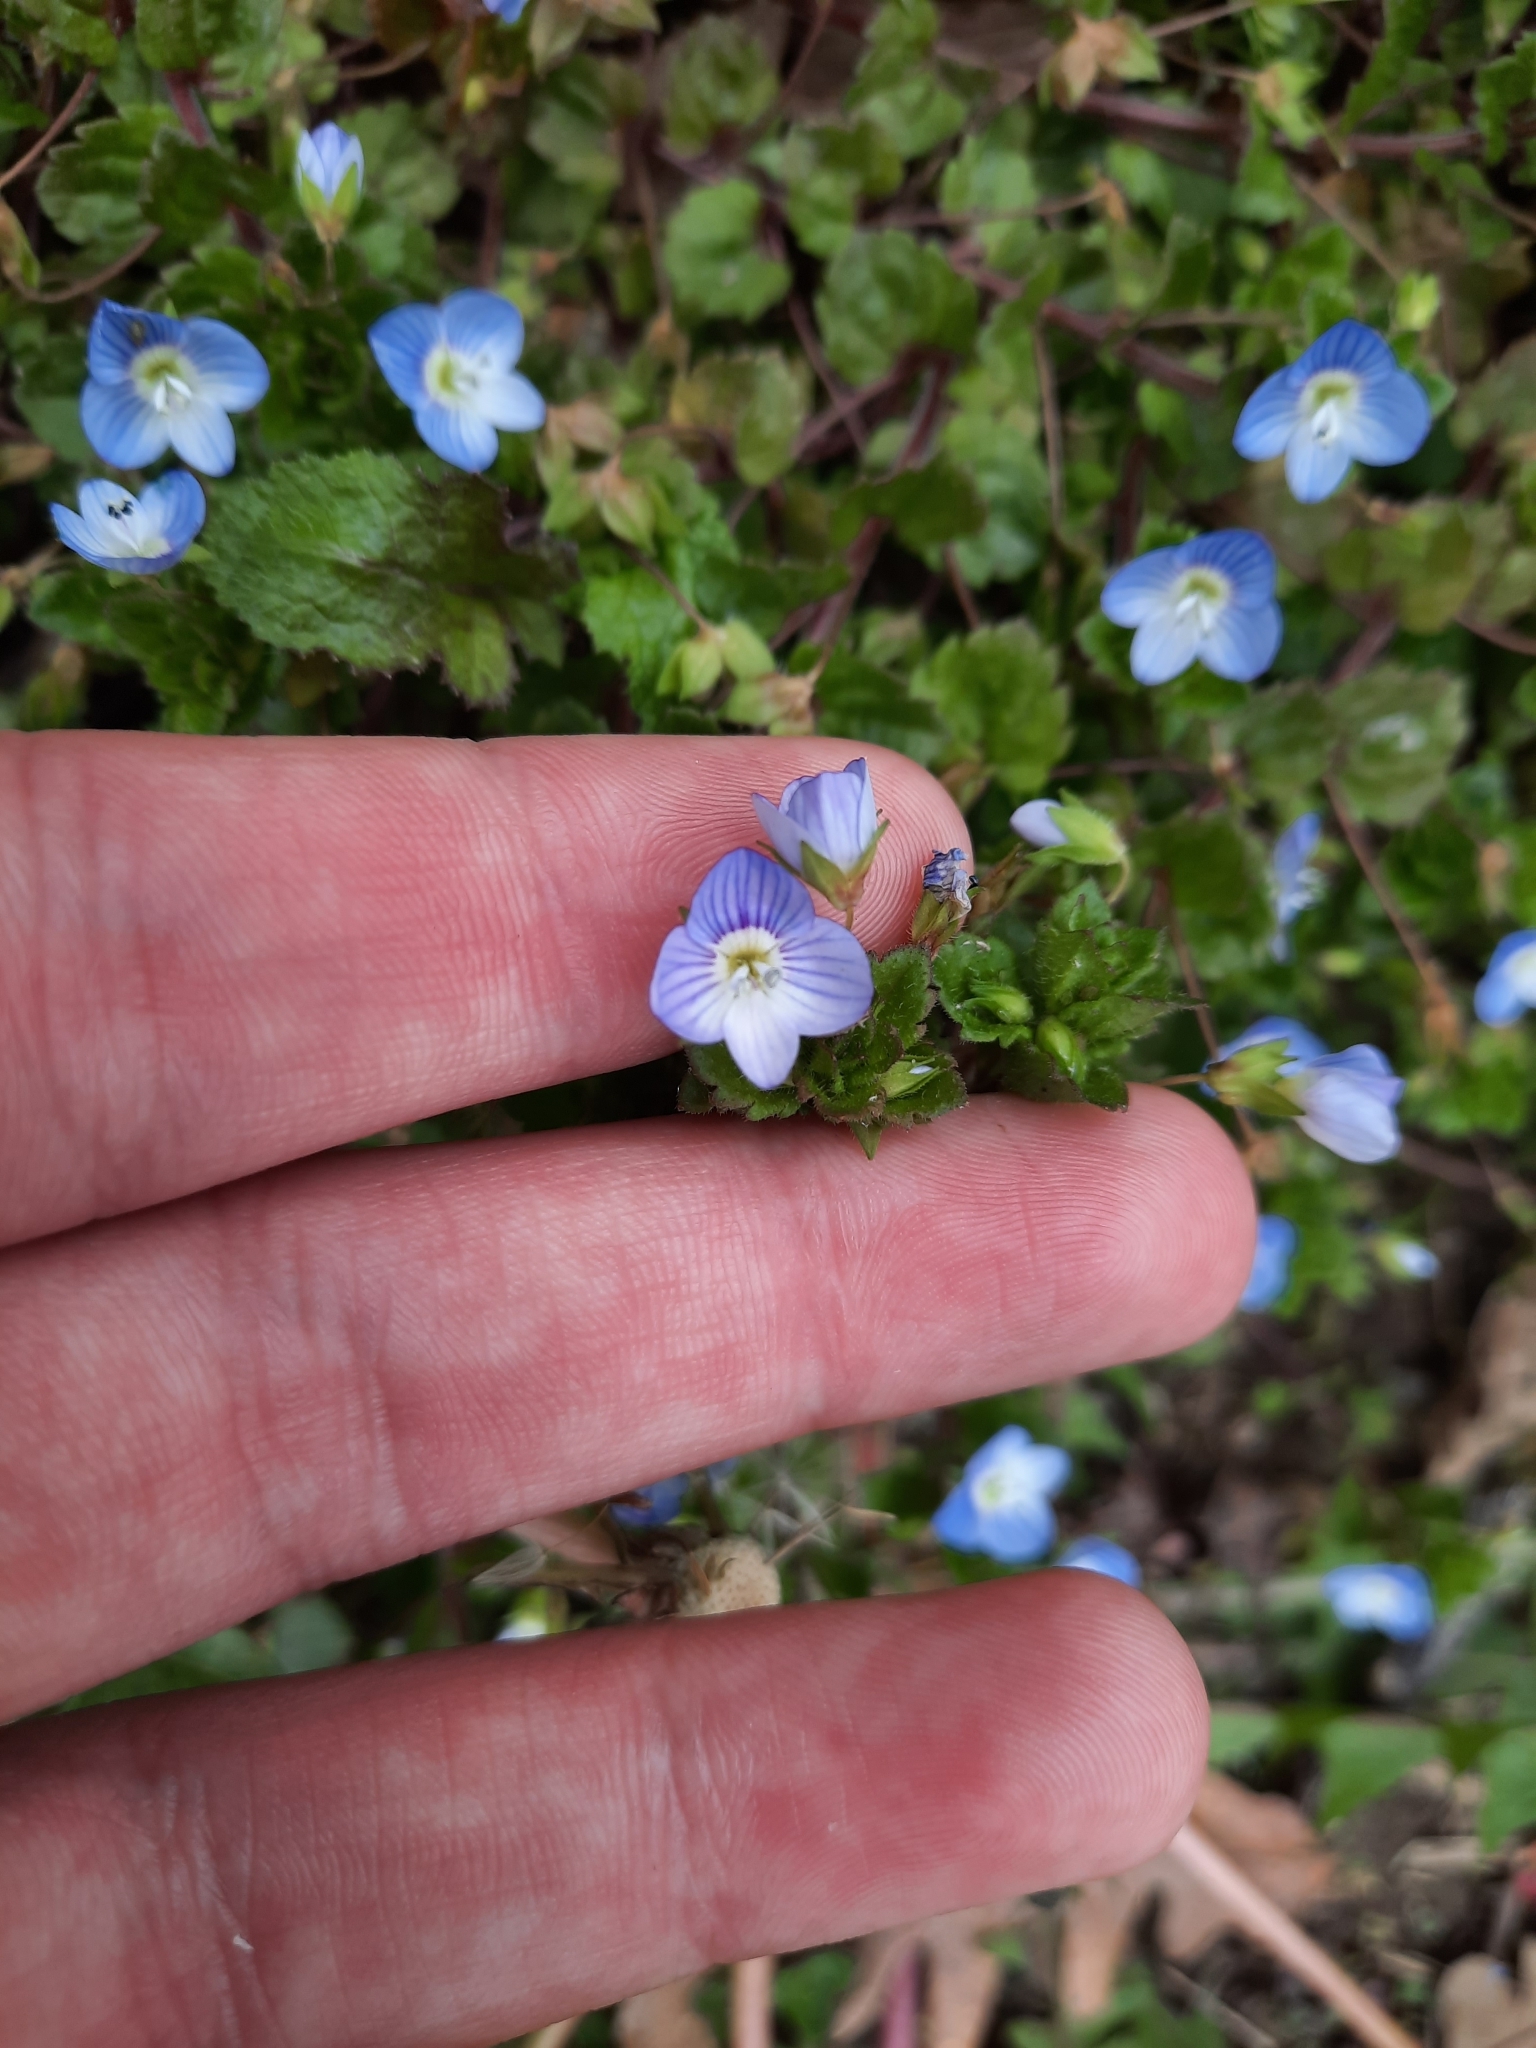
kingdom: Plantae
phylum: Tracheophyta
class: Magnoliopsida
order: Lamiales
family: Plantaginaceae
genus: Veronica
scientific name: Veronica persica
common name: Common field-speedwell
